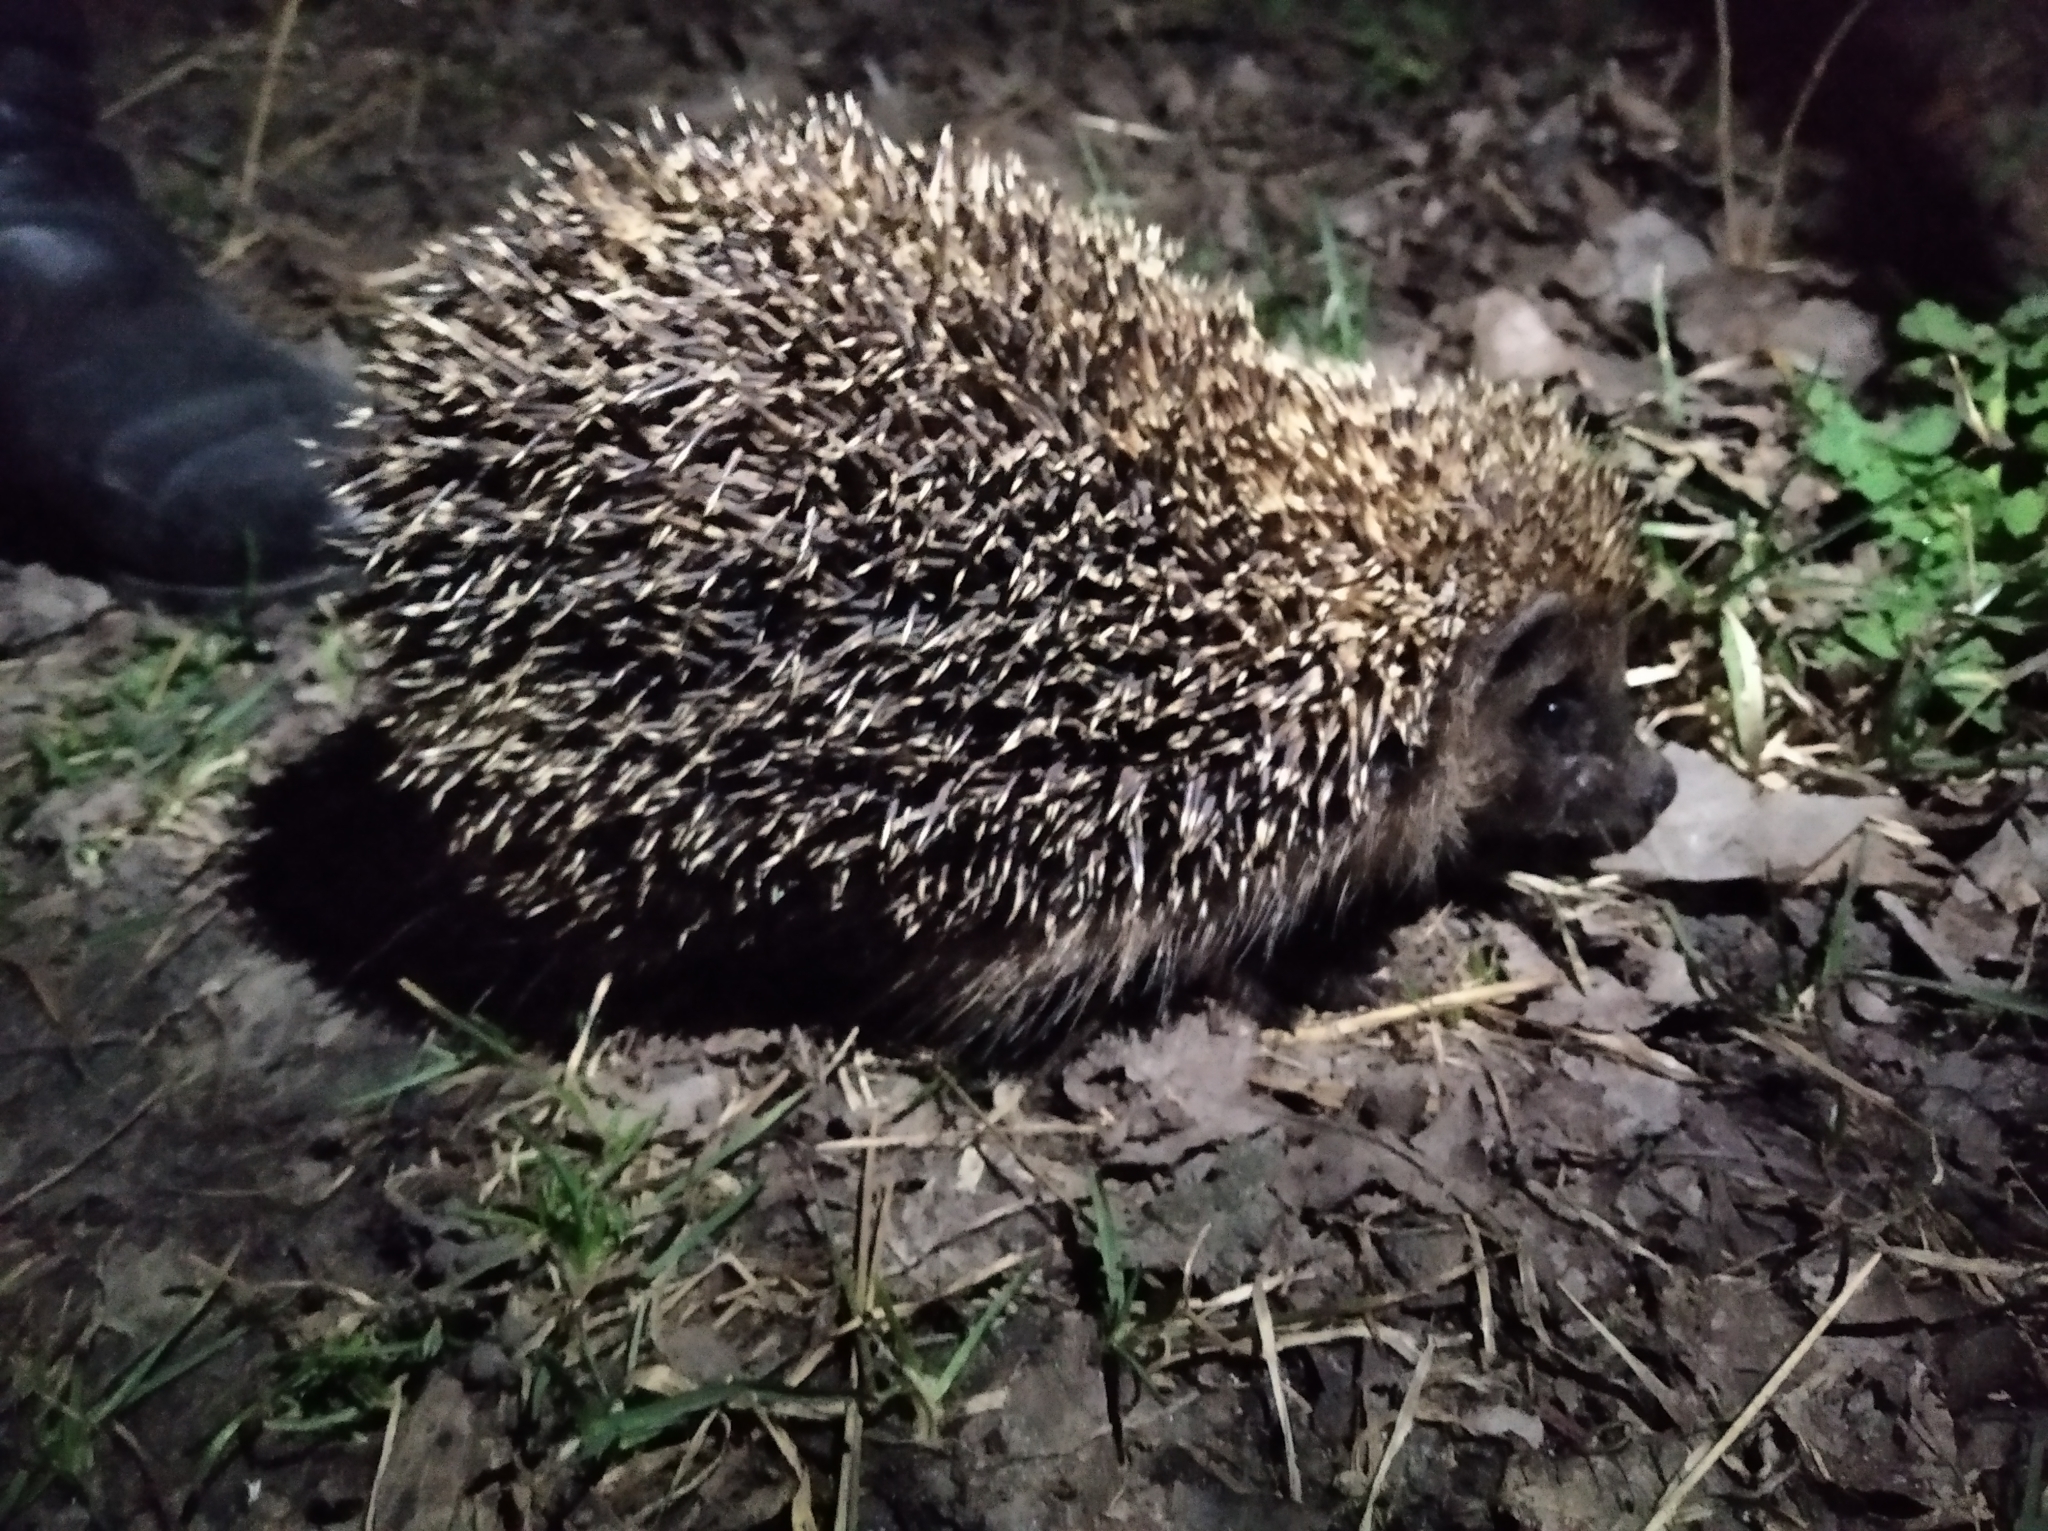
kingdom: Animalia
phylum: Chordata
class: Mammalia
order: Erinaceomorpha
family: Erinaceidae
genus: Erinaceus
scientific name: Erinaceus roumanicus
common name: Northern white-breasted hedgehog
